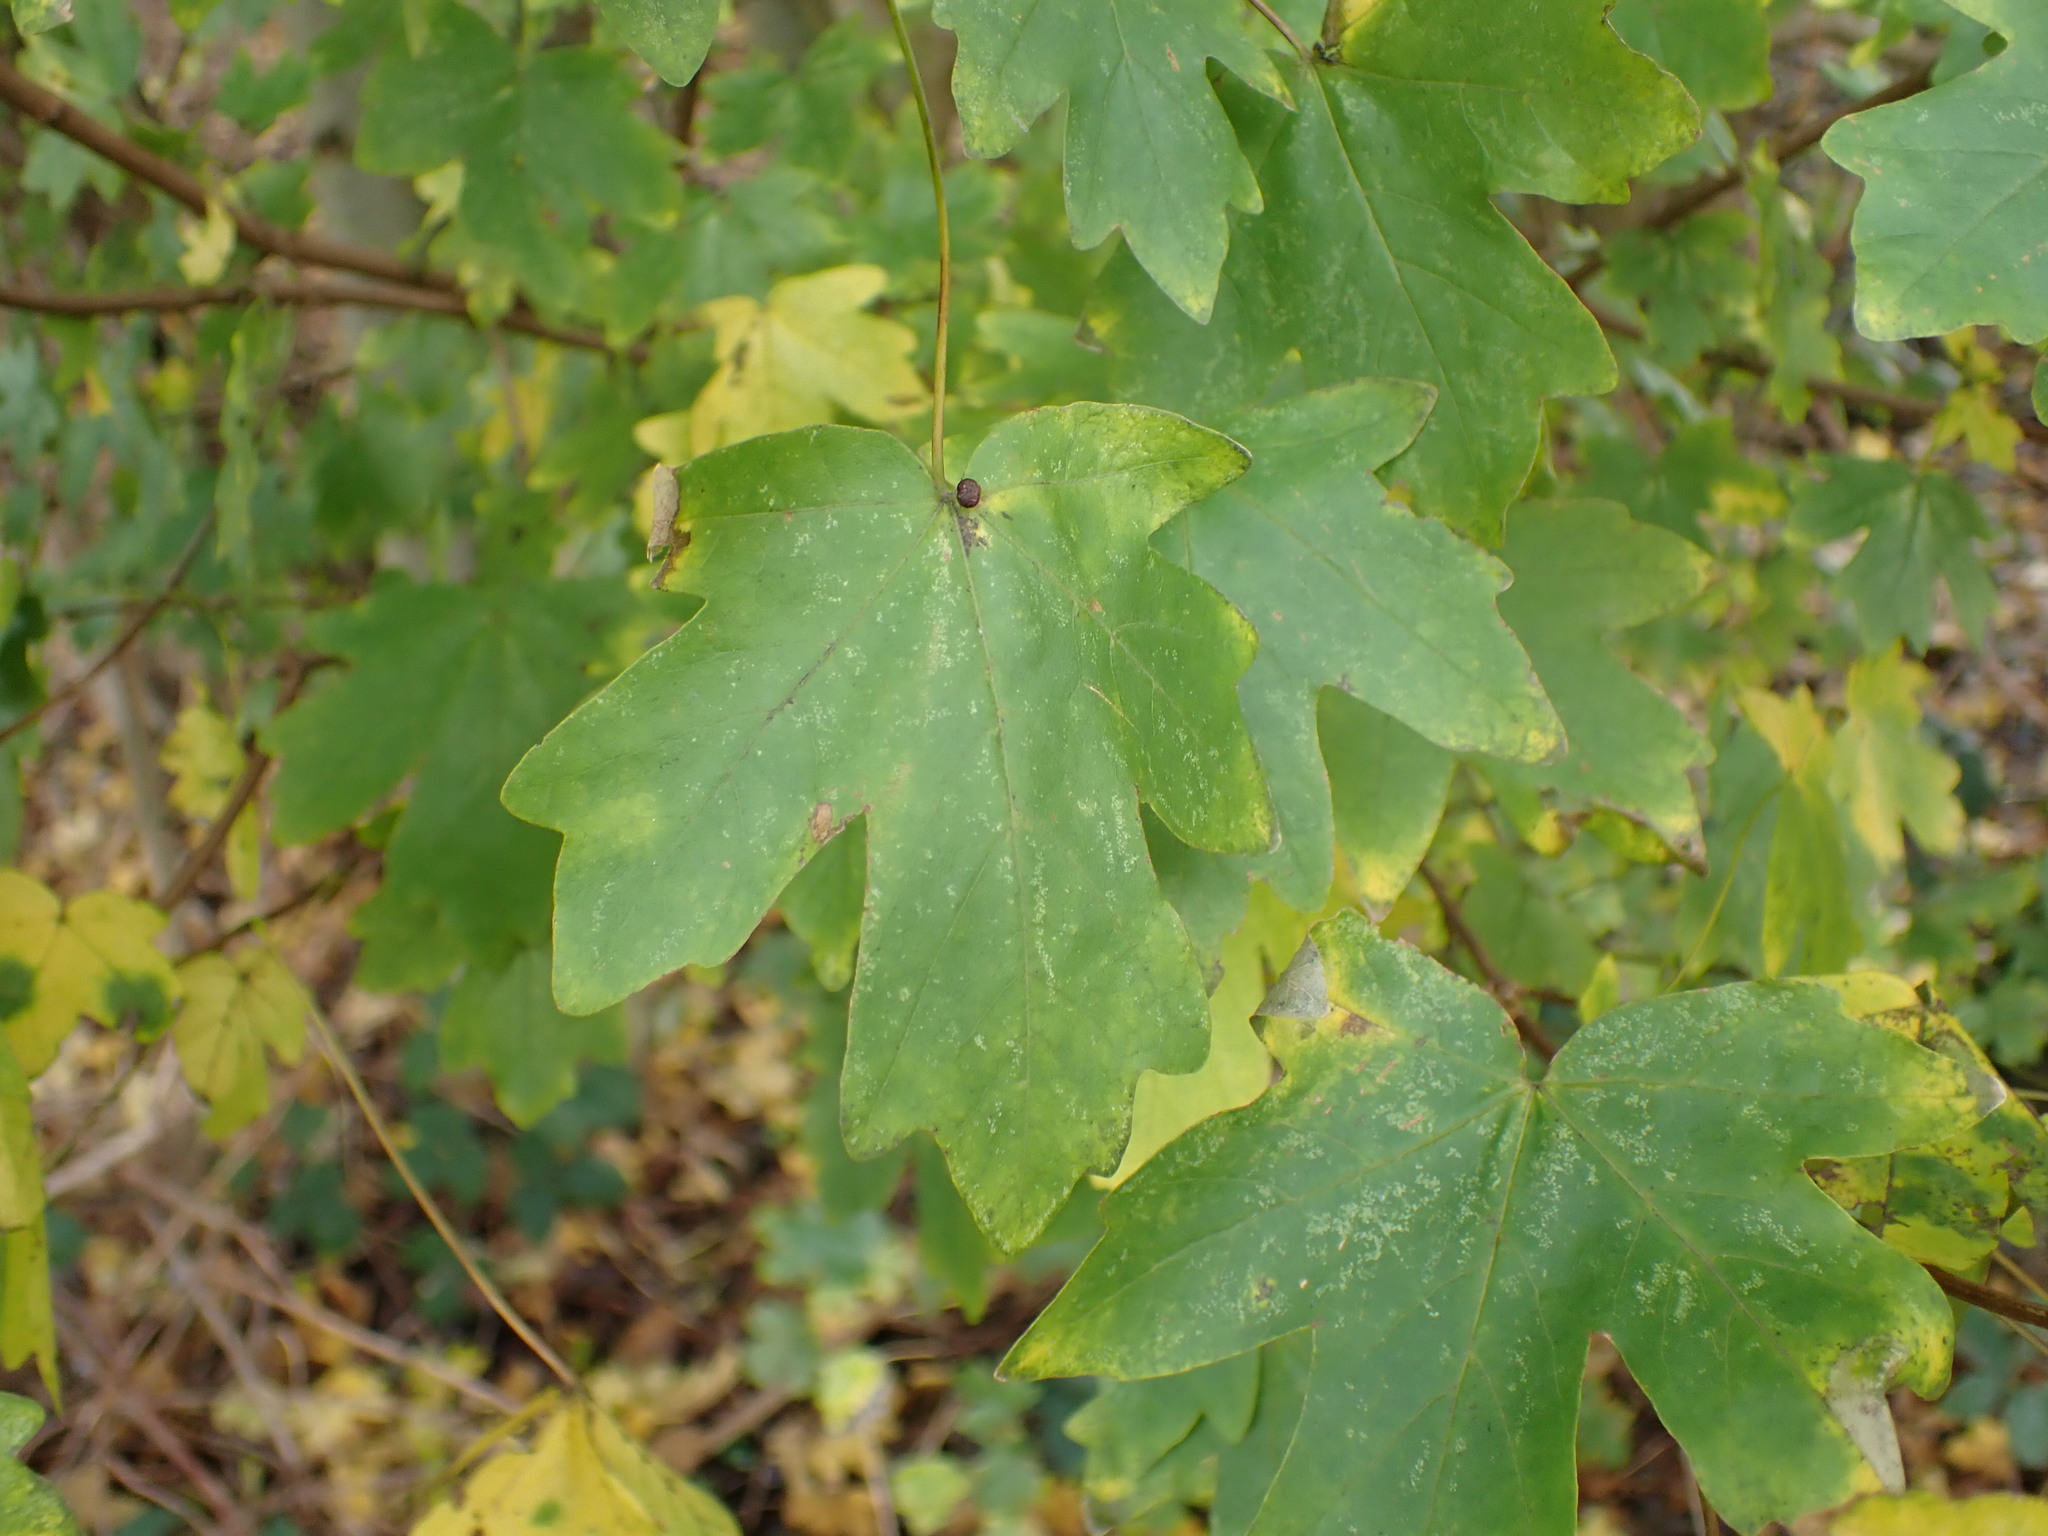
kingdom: Plantae
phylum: Tracheophyta
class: Magnoliopsida
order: Sapindales
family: Sapindaceae
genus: Acer
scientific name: Acer campestre
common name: Field maple
